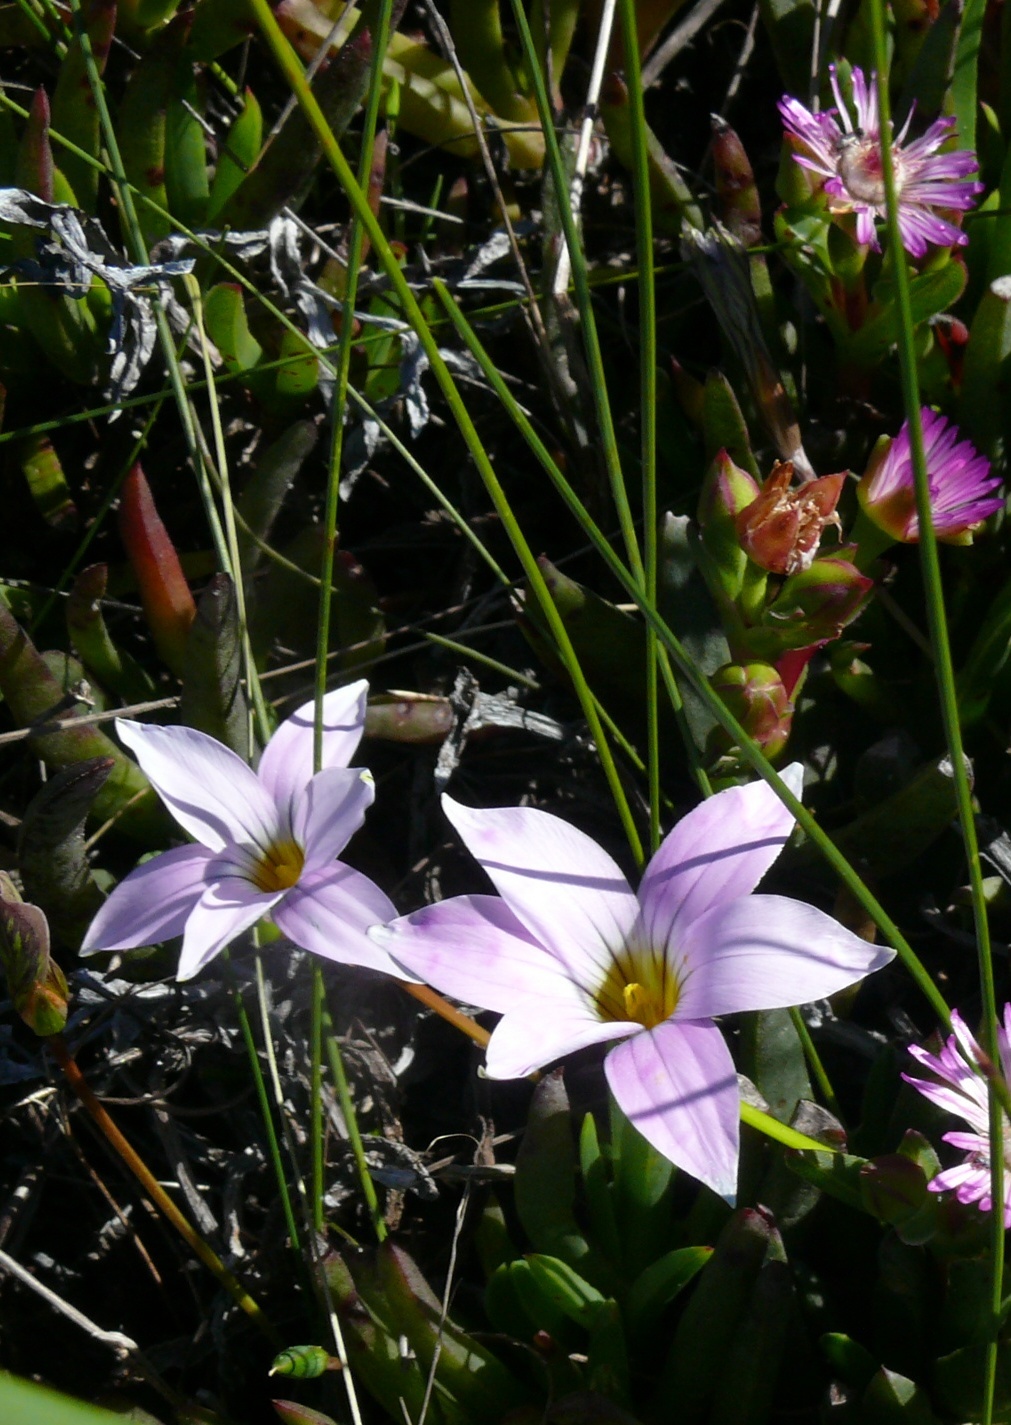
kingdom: Plantae
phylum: Tracheophyta
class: Liliopsida
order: Asparagales
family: Iridaceae
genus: Romulea
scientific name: Romulea flava
